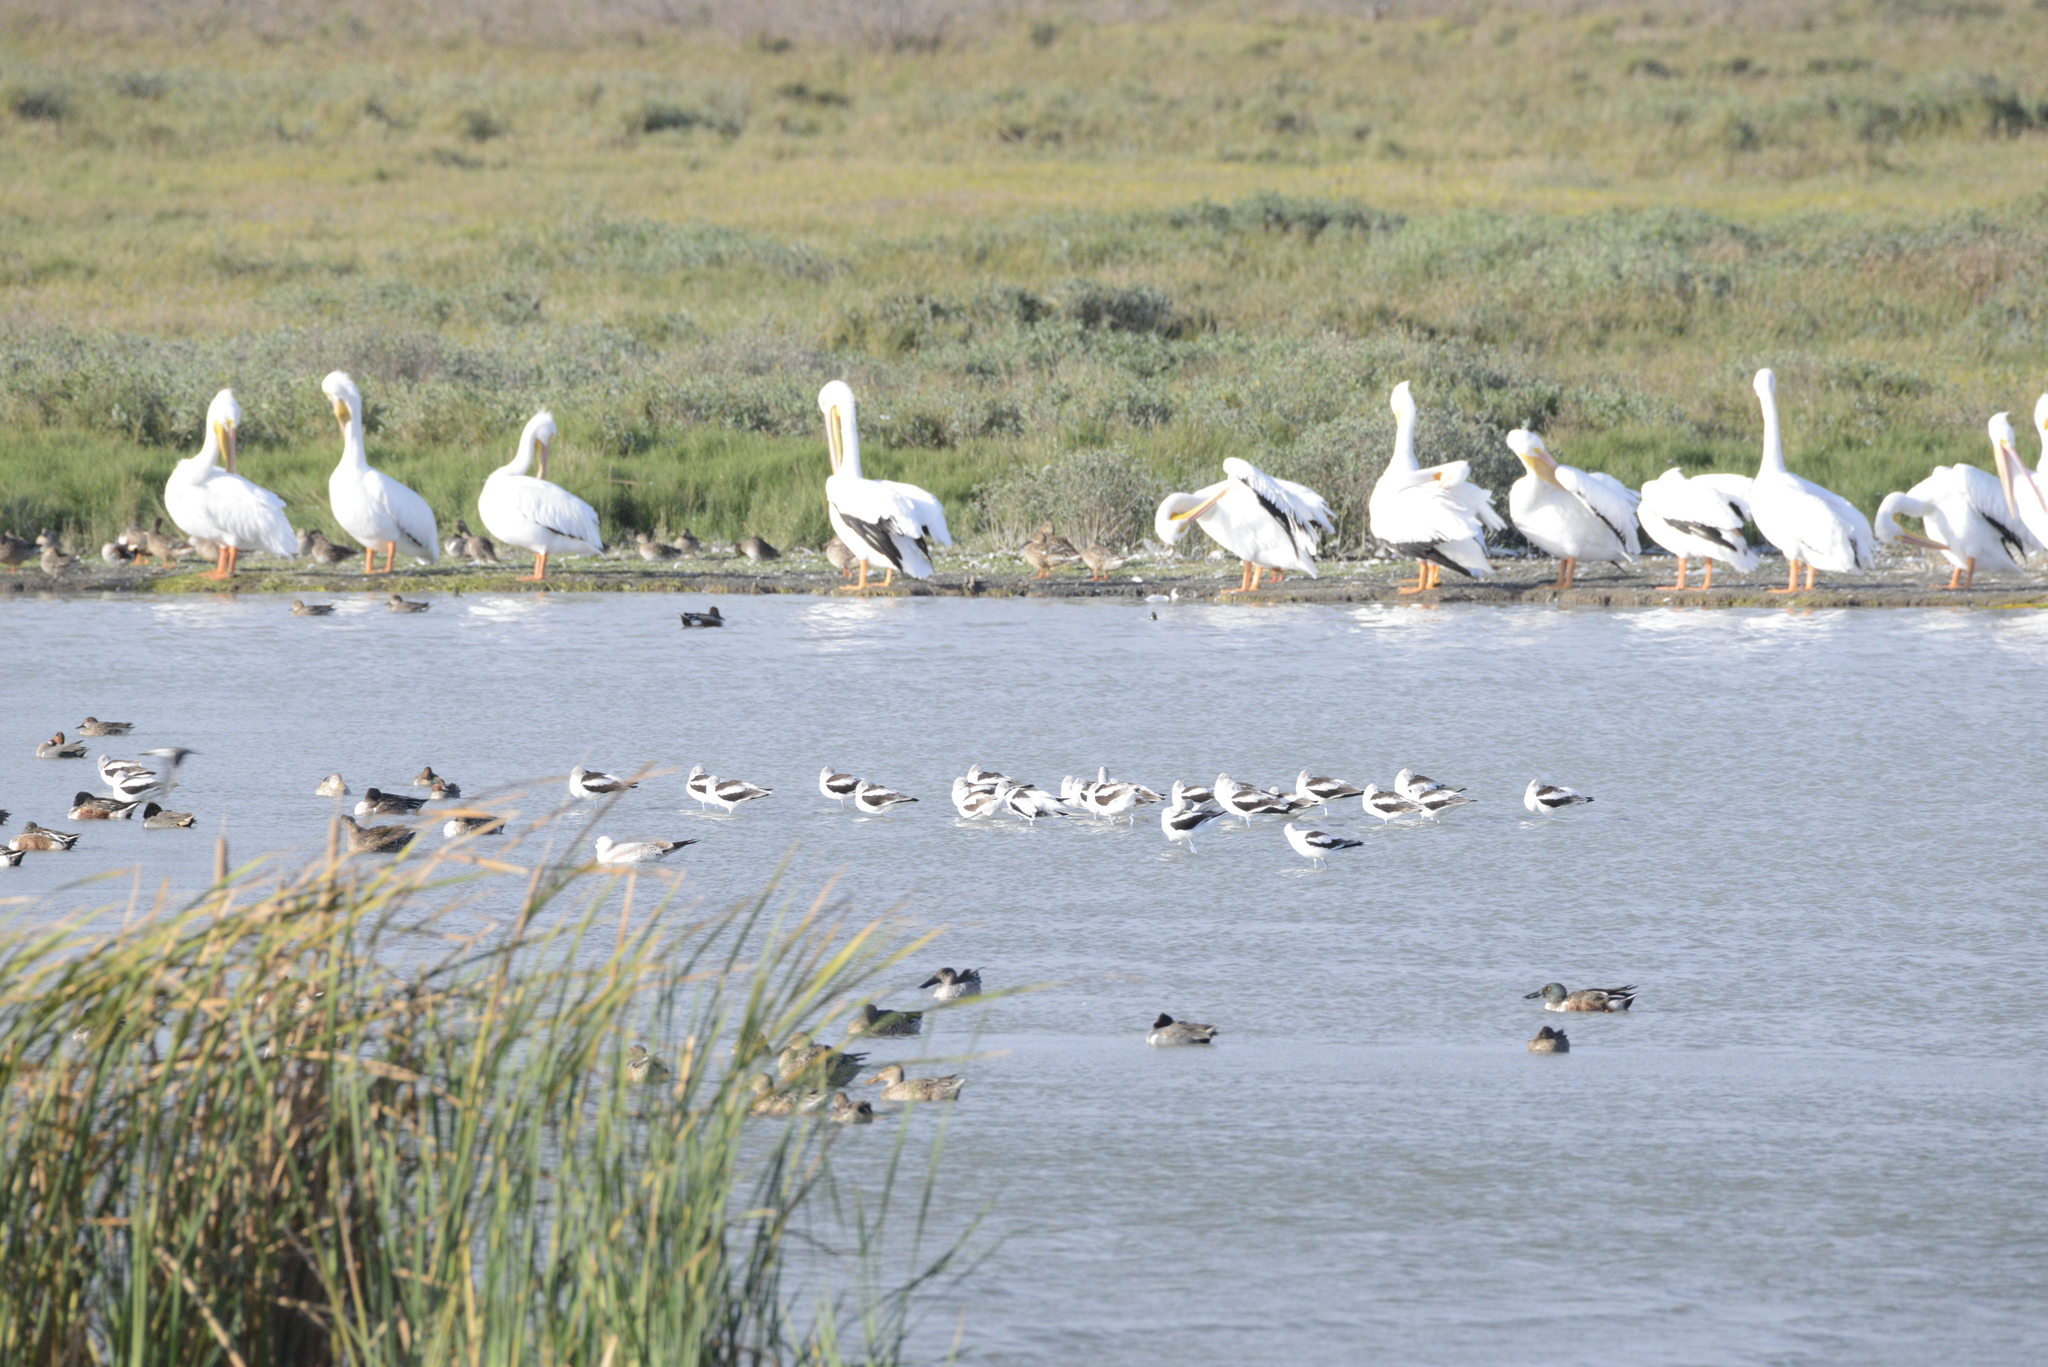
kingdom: Animalia
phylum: Chordata
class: Aves
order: Charadriiformes
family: Recurvirostridae
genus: Recurvirostra
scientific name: Recurvirostra americana
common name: American avocet
